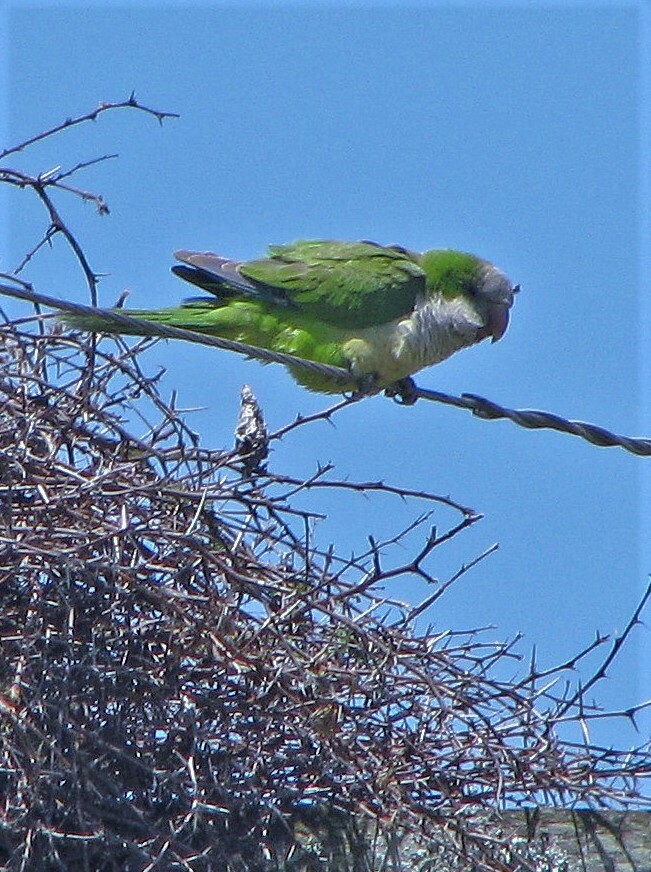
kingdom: Animalia
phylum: Chordata
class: Aves
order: Psittaciformes
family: Psittacidae
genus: Myiopsitta
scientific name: Myiopsitta monachus
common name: Monk parakeet
